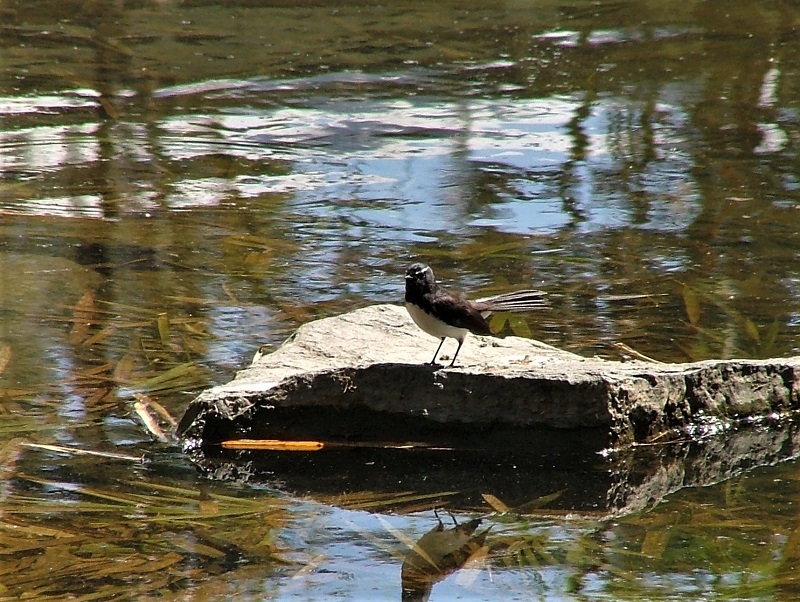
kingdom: Animalia
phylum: Chordata
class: Aves
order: Passeriformes
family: Rhipiduridae
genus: Rhipidura
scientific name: Rhipidura leucophrys
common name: Willie wagtail
